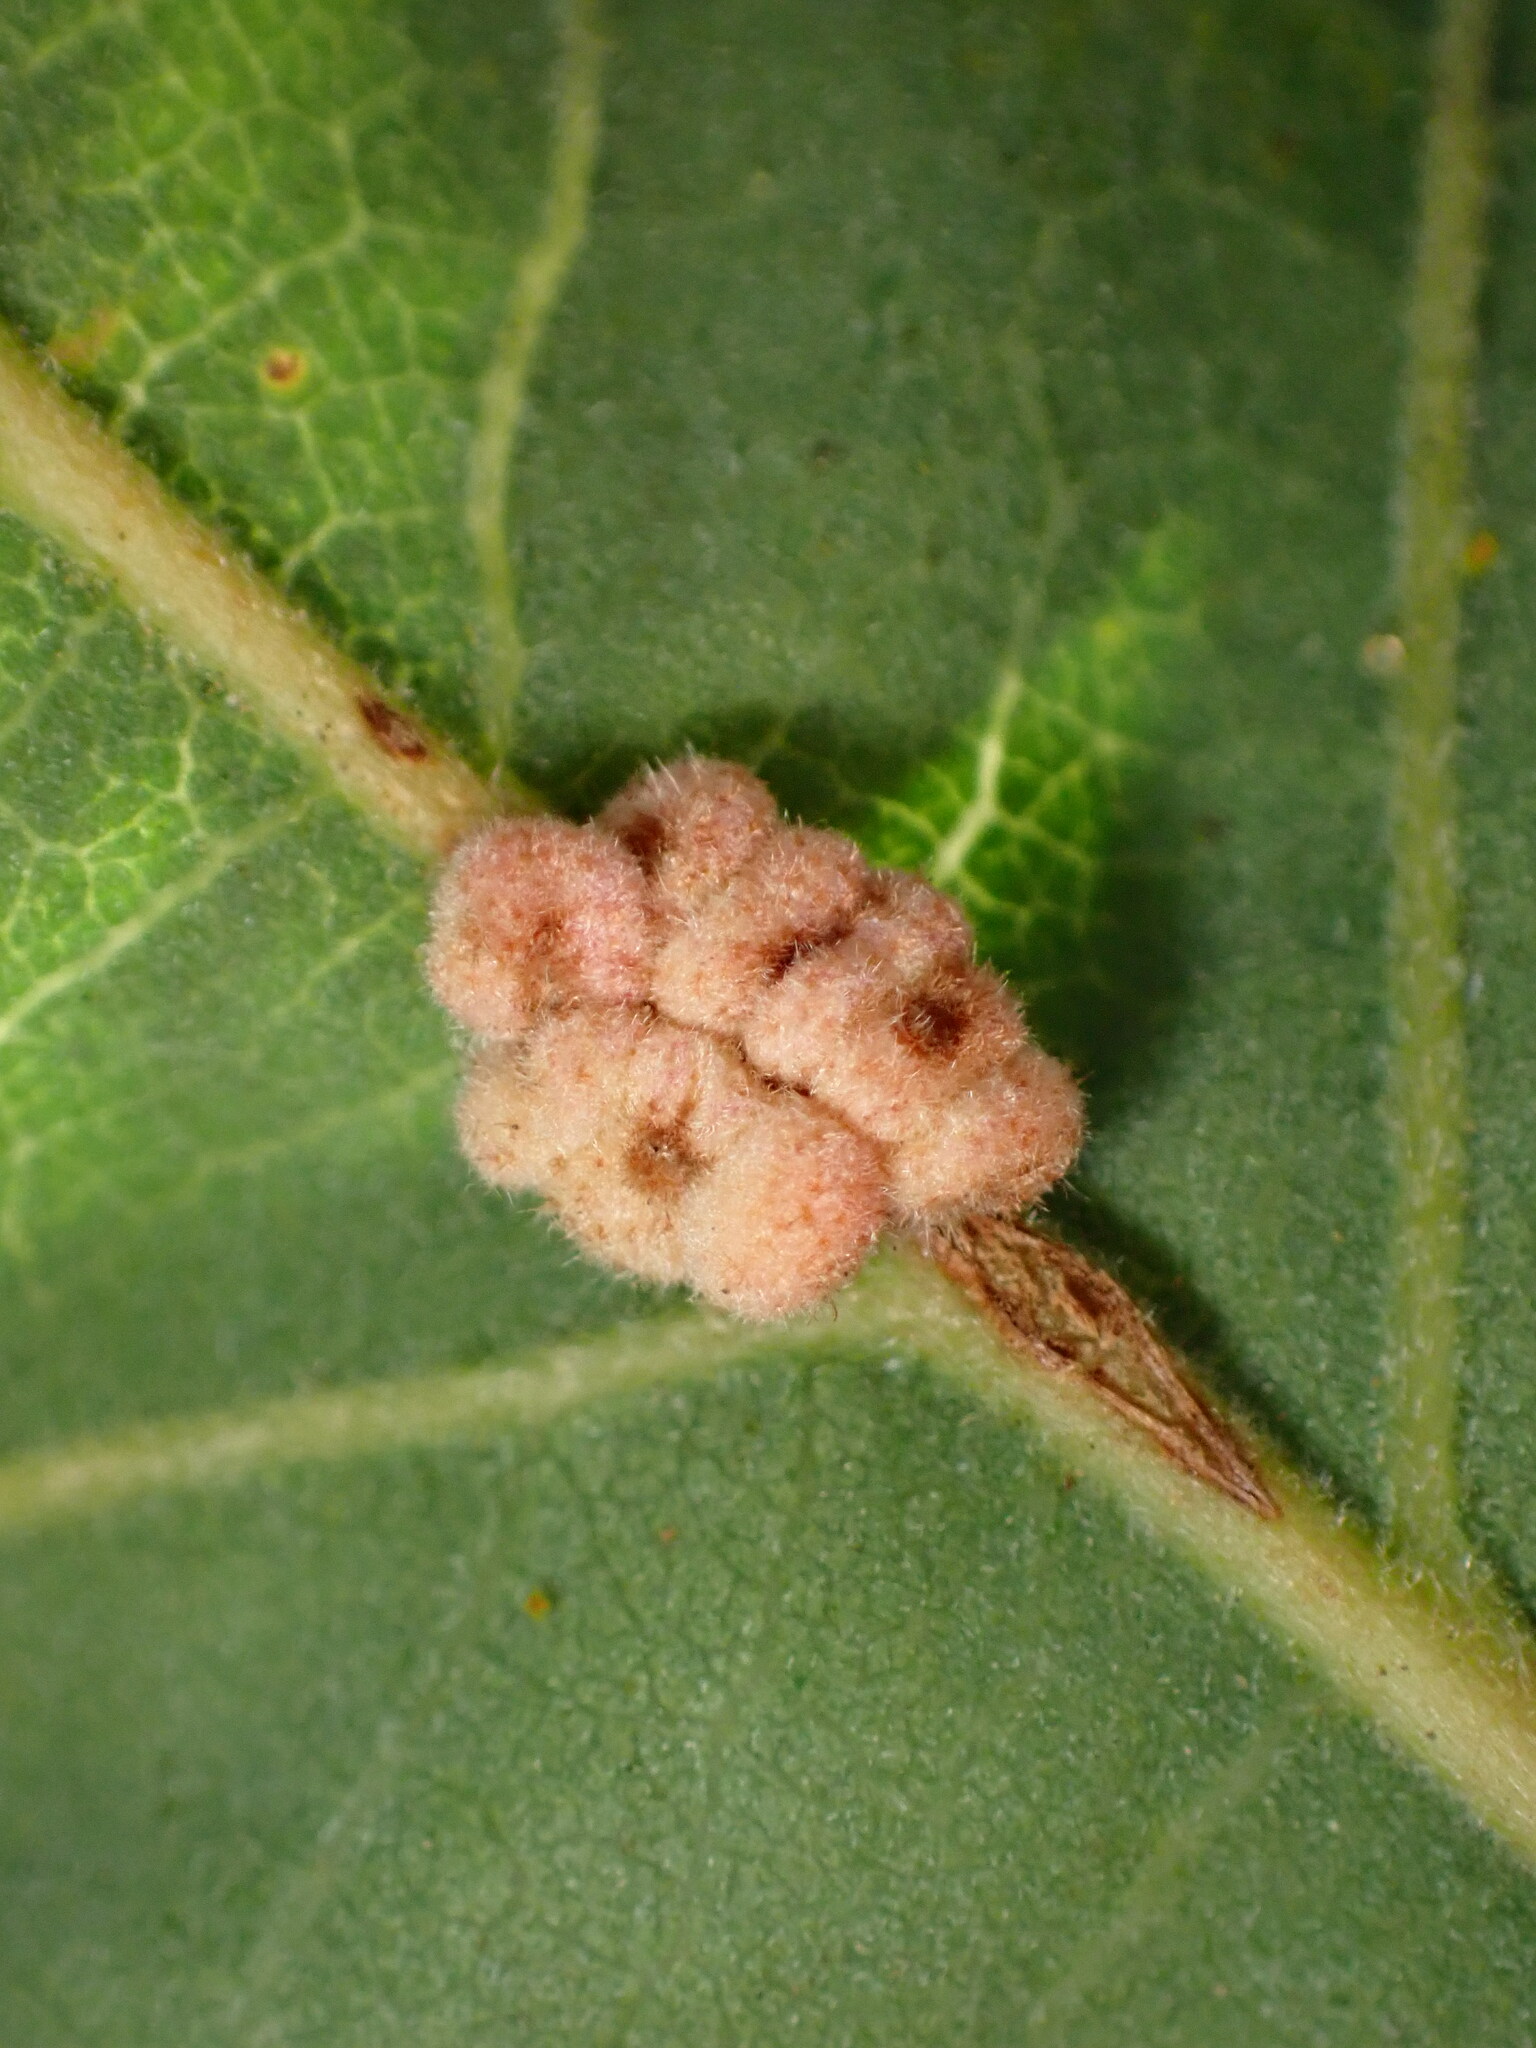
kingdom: Animalia
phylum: Arthropoda
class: Insecta
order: Hymenoptera
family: Cynipidae
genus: Andricus
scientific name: Andricus
